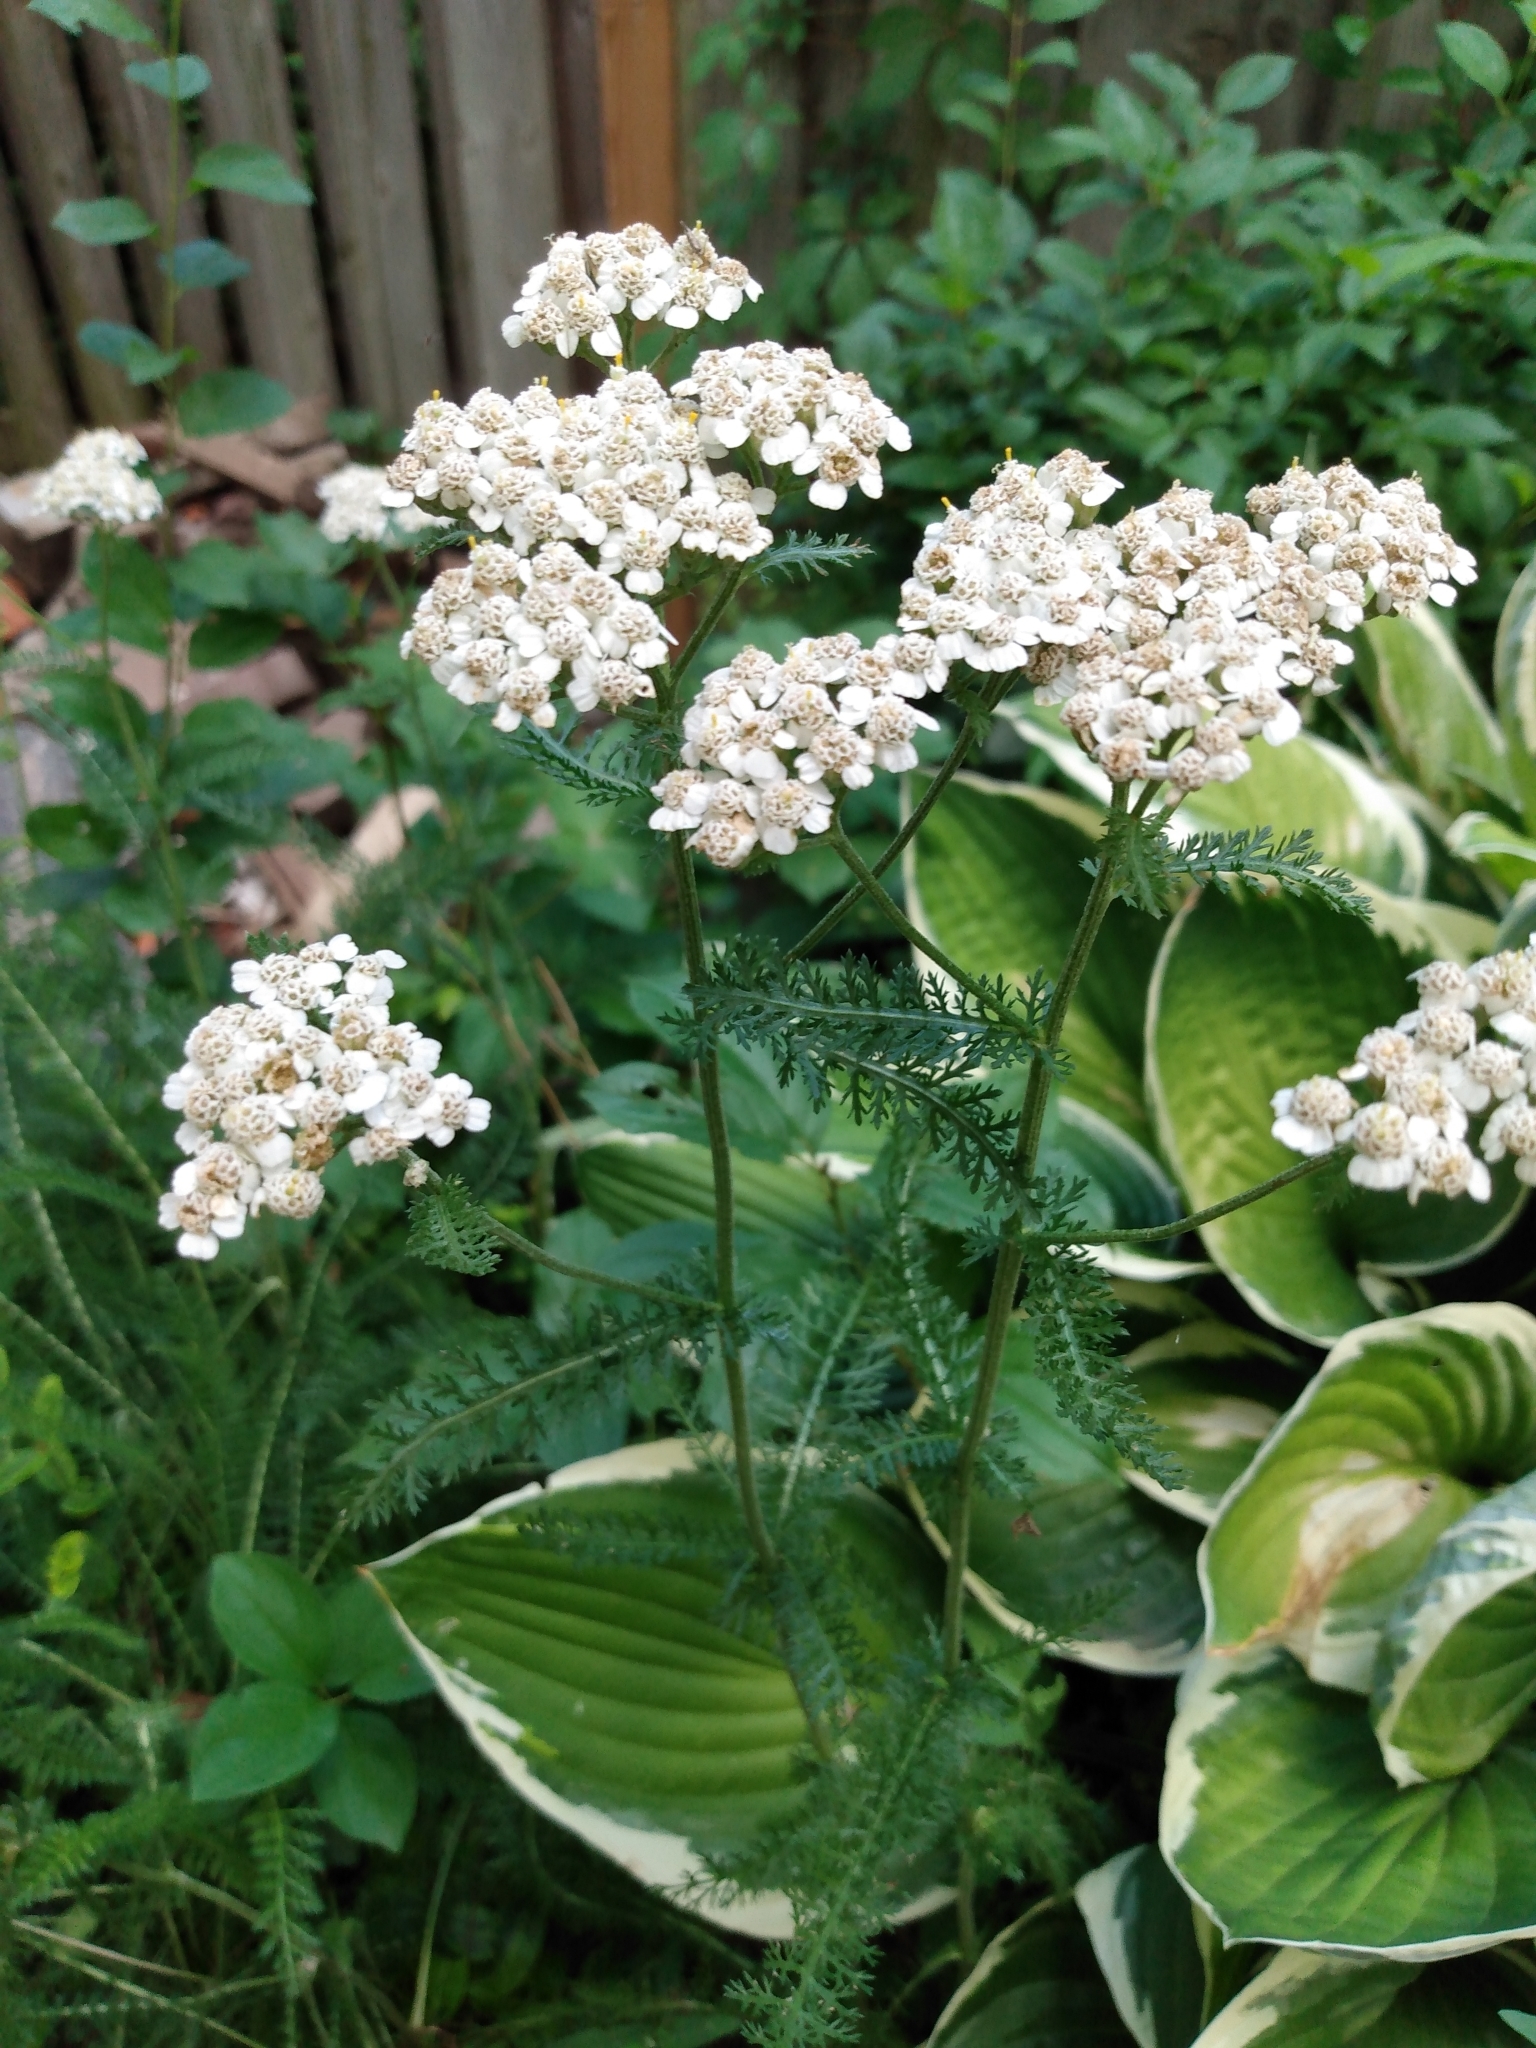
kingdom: Plantae
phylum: Tracheophyta
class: Magnoliopsida
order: Asterales
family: Asteraceae
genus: Achillea
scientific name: Achillea millefolium
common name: Yarrow
